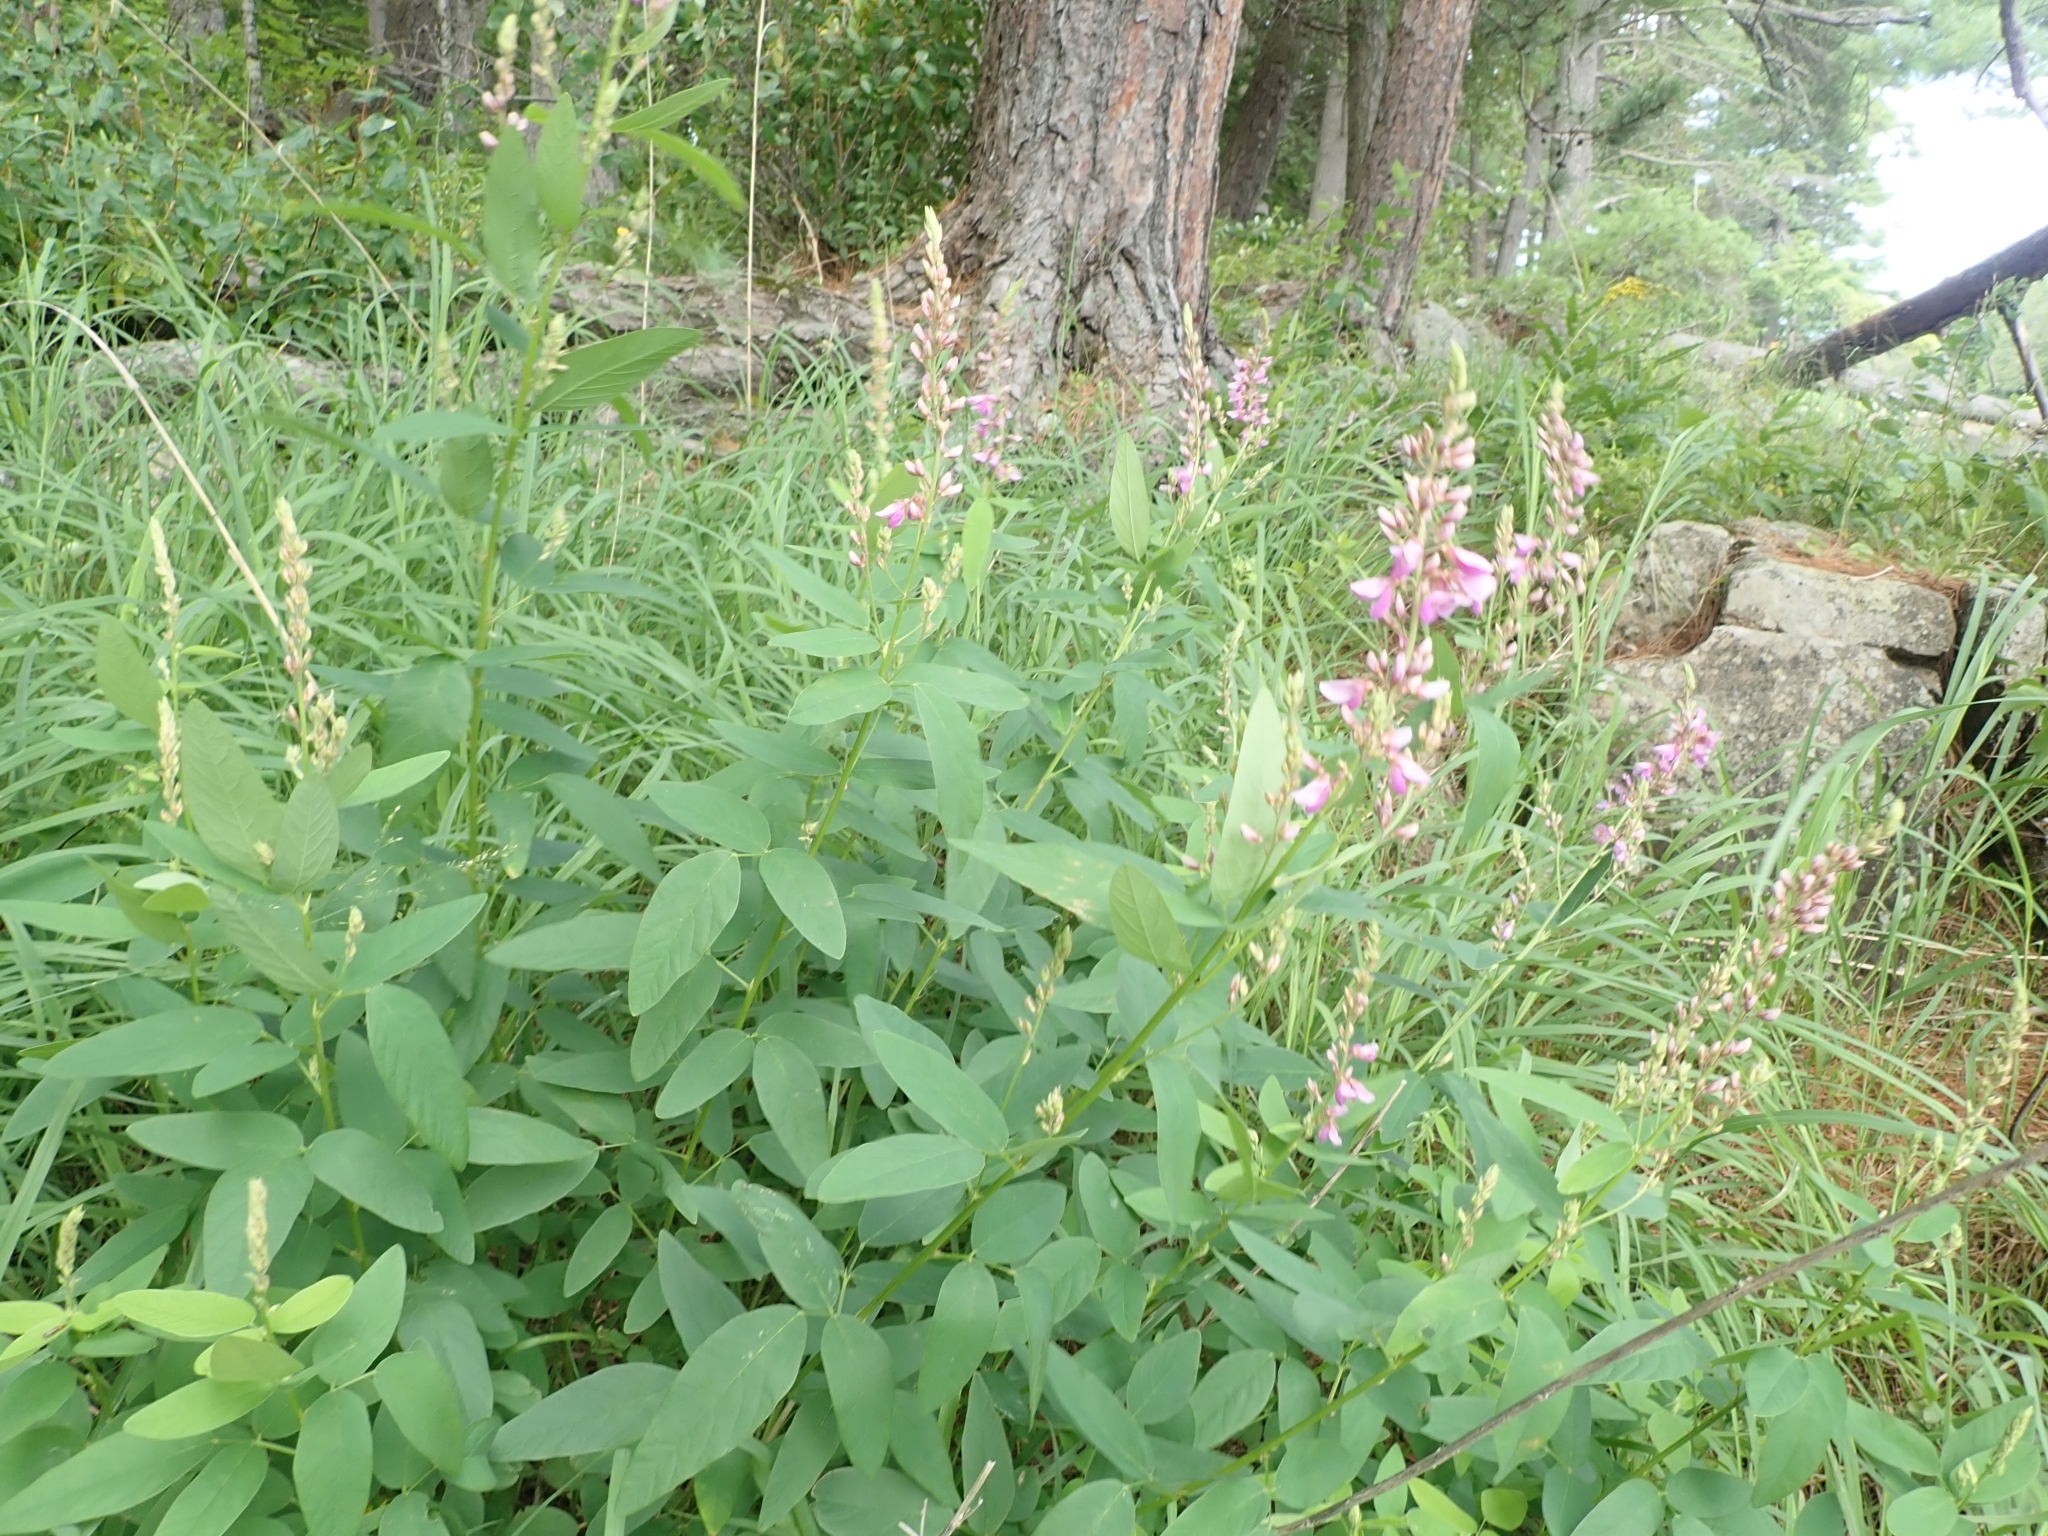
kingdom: Plantae
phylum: Tracheophyta
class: Magnoliopsida
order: Fabales
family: Fabaceae
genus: Desmodium
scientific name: Desmodium canadense
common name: Canada tick-trefoil
